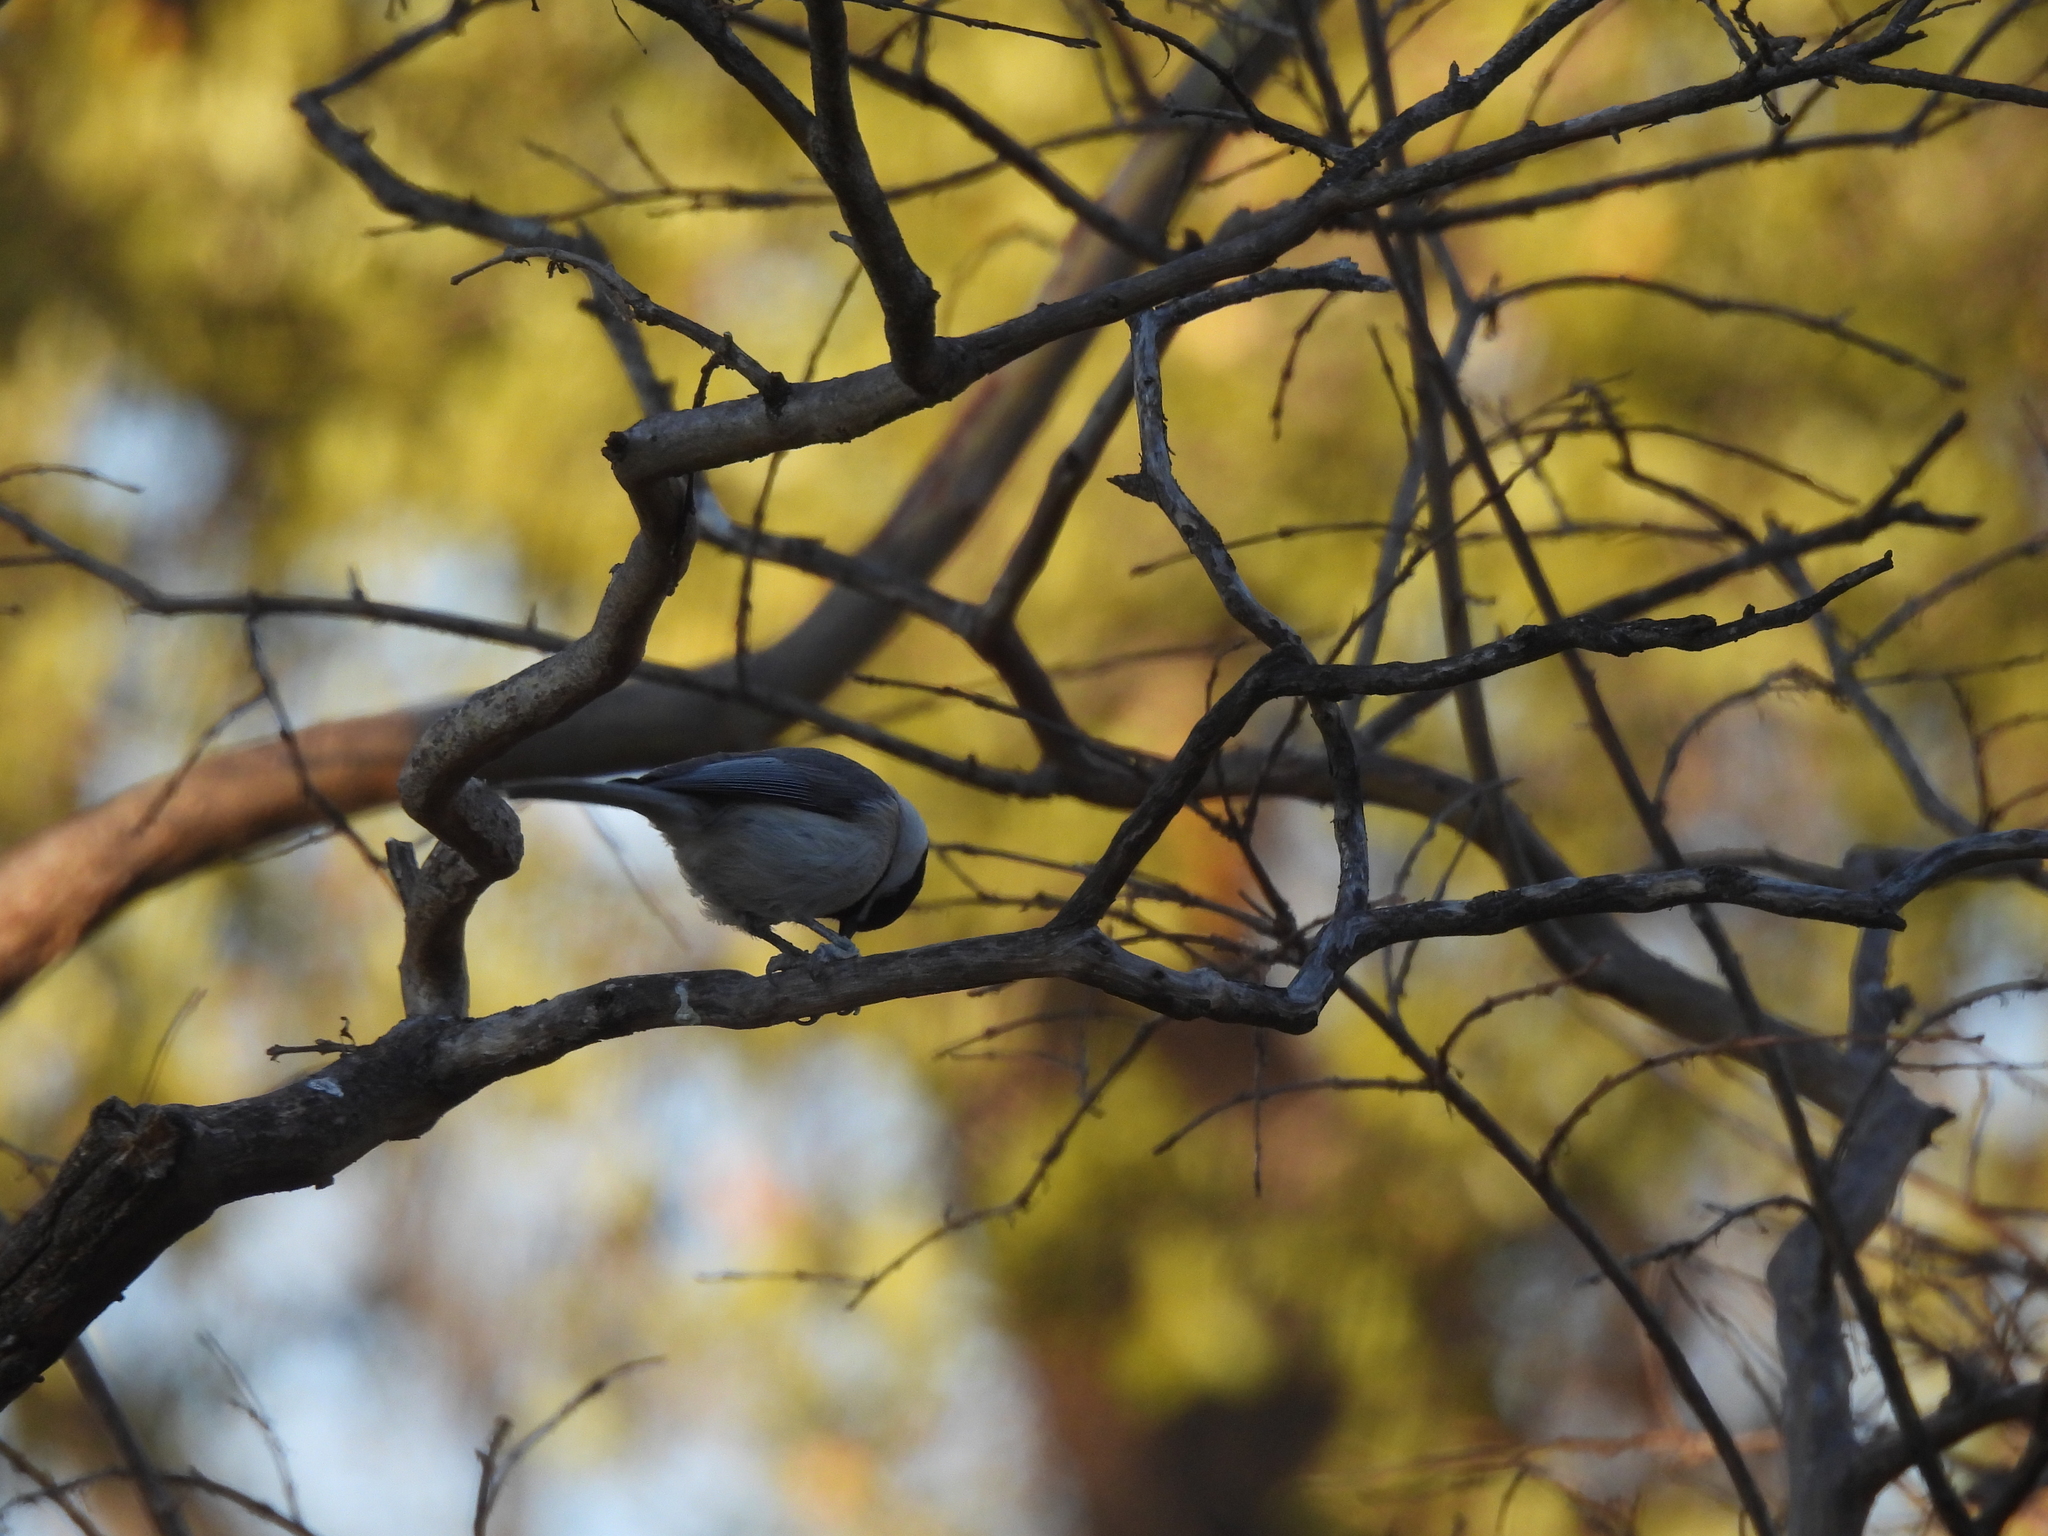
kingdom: Animalia
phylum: Chordata
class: Aves
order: Passeriformes
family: Paridae
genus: Poecile
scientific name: Poecile carolinensis
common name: Carolina chickadee
